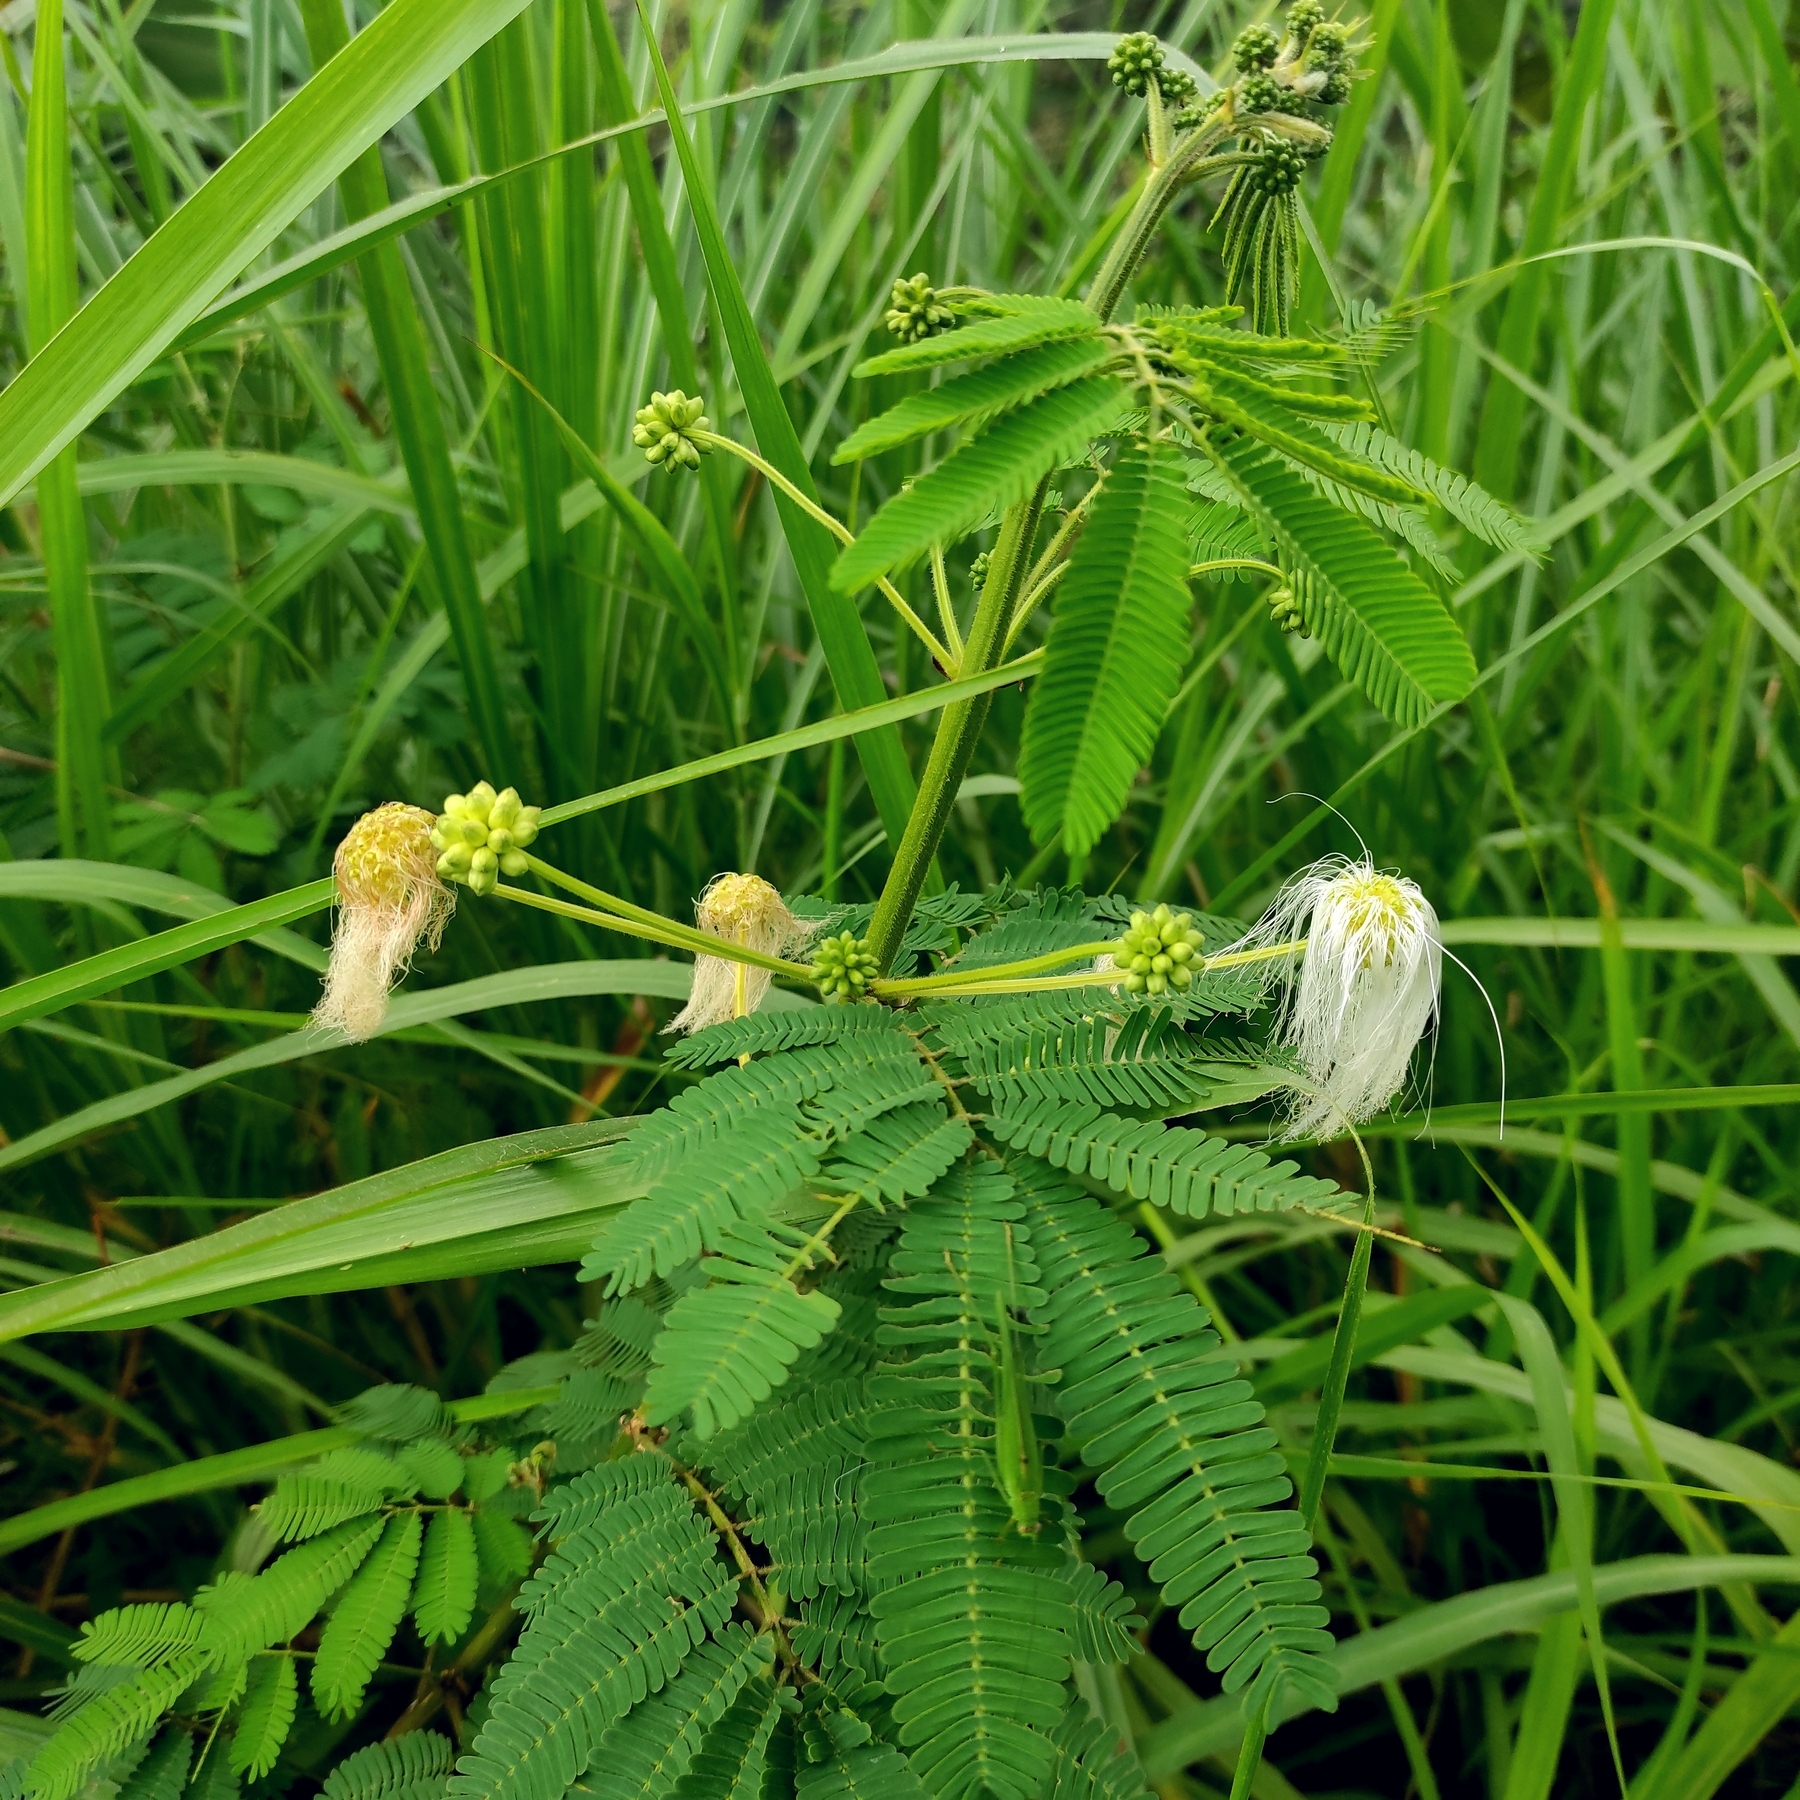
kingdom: Plantae
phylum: Tracheophyta
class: Magnoliopsida
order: Fabales
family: Fabaceae
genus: Zapoteca
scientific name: Zapoteca portoricensis
